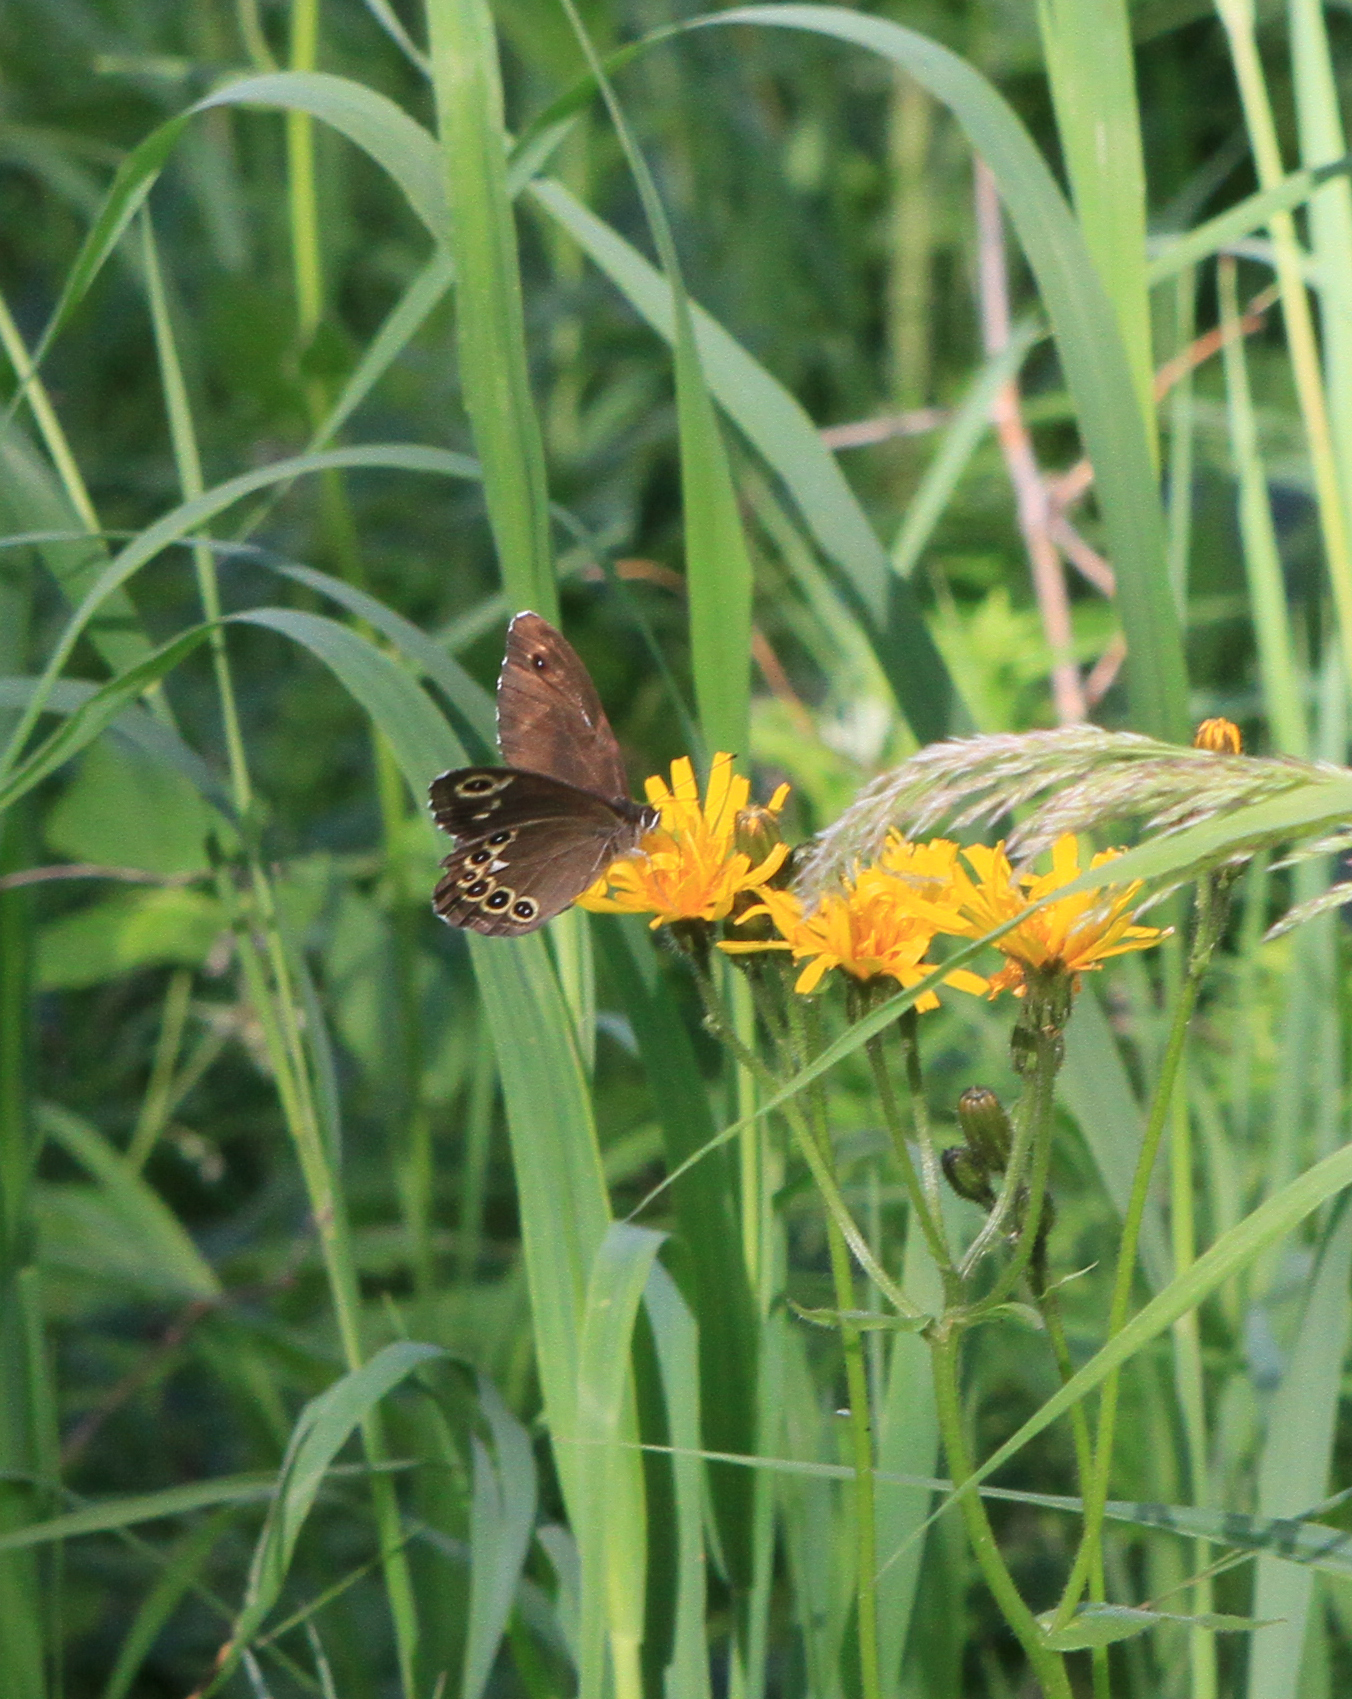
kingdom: Animalia
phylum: Arthropoda
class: Insecta
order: Lepidoptera
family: Nymphalidae
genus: Pararge
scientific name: Pararge Lasiommata deidamia
